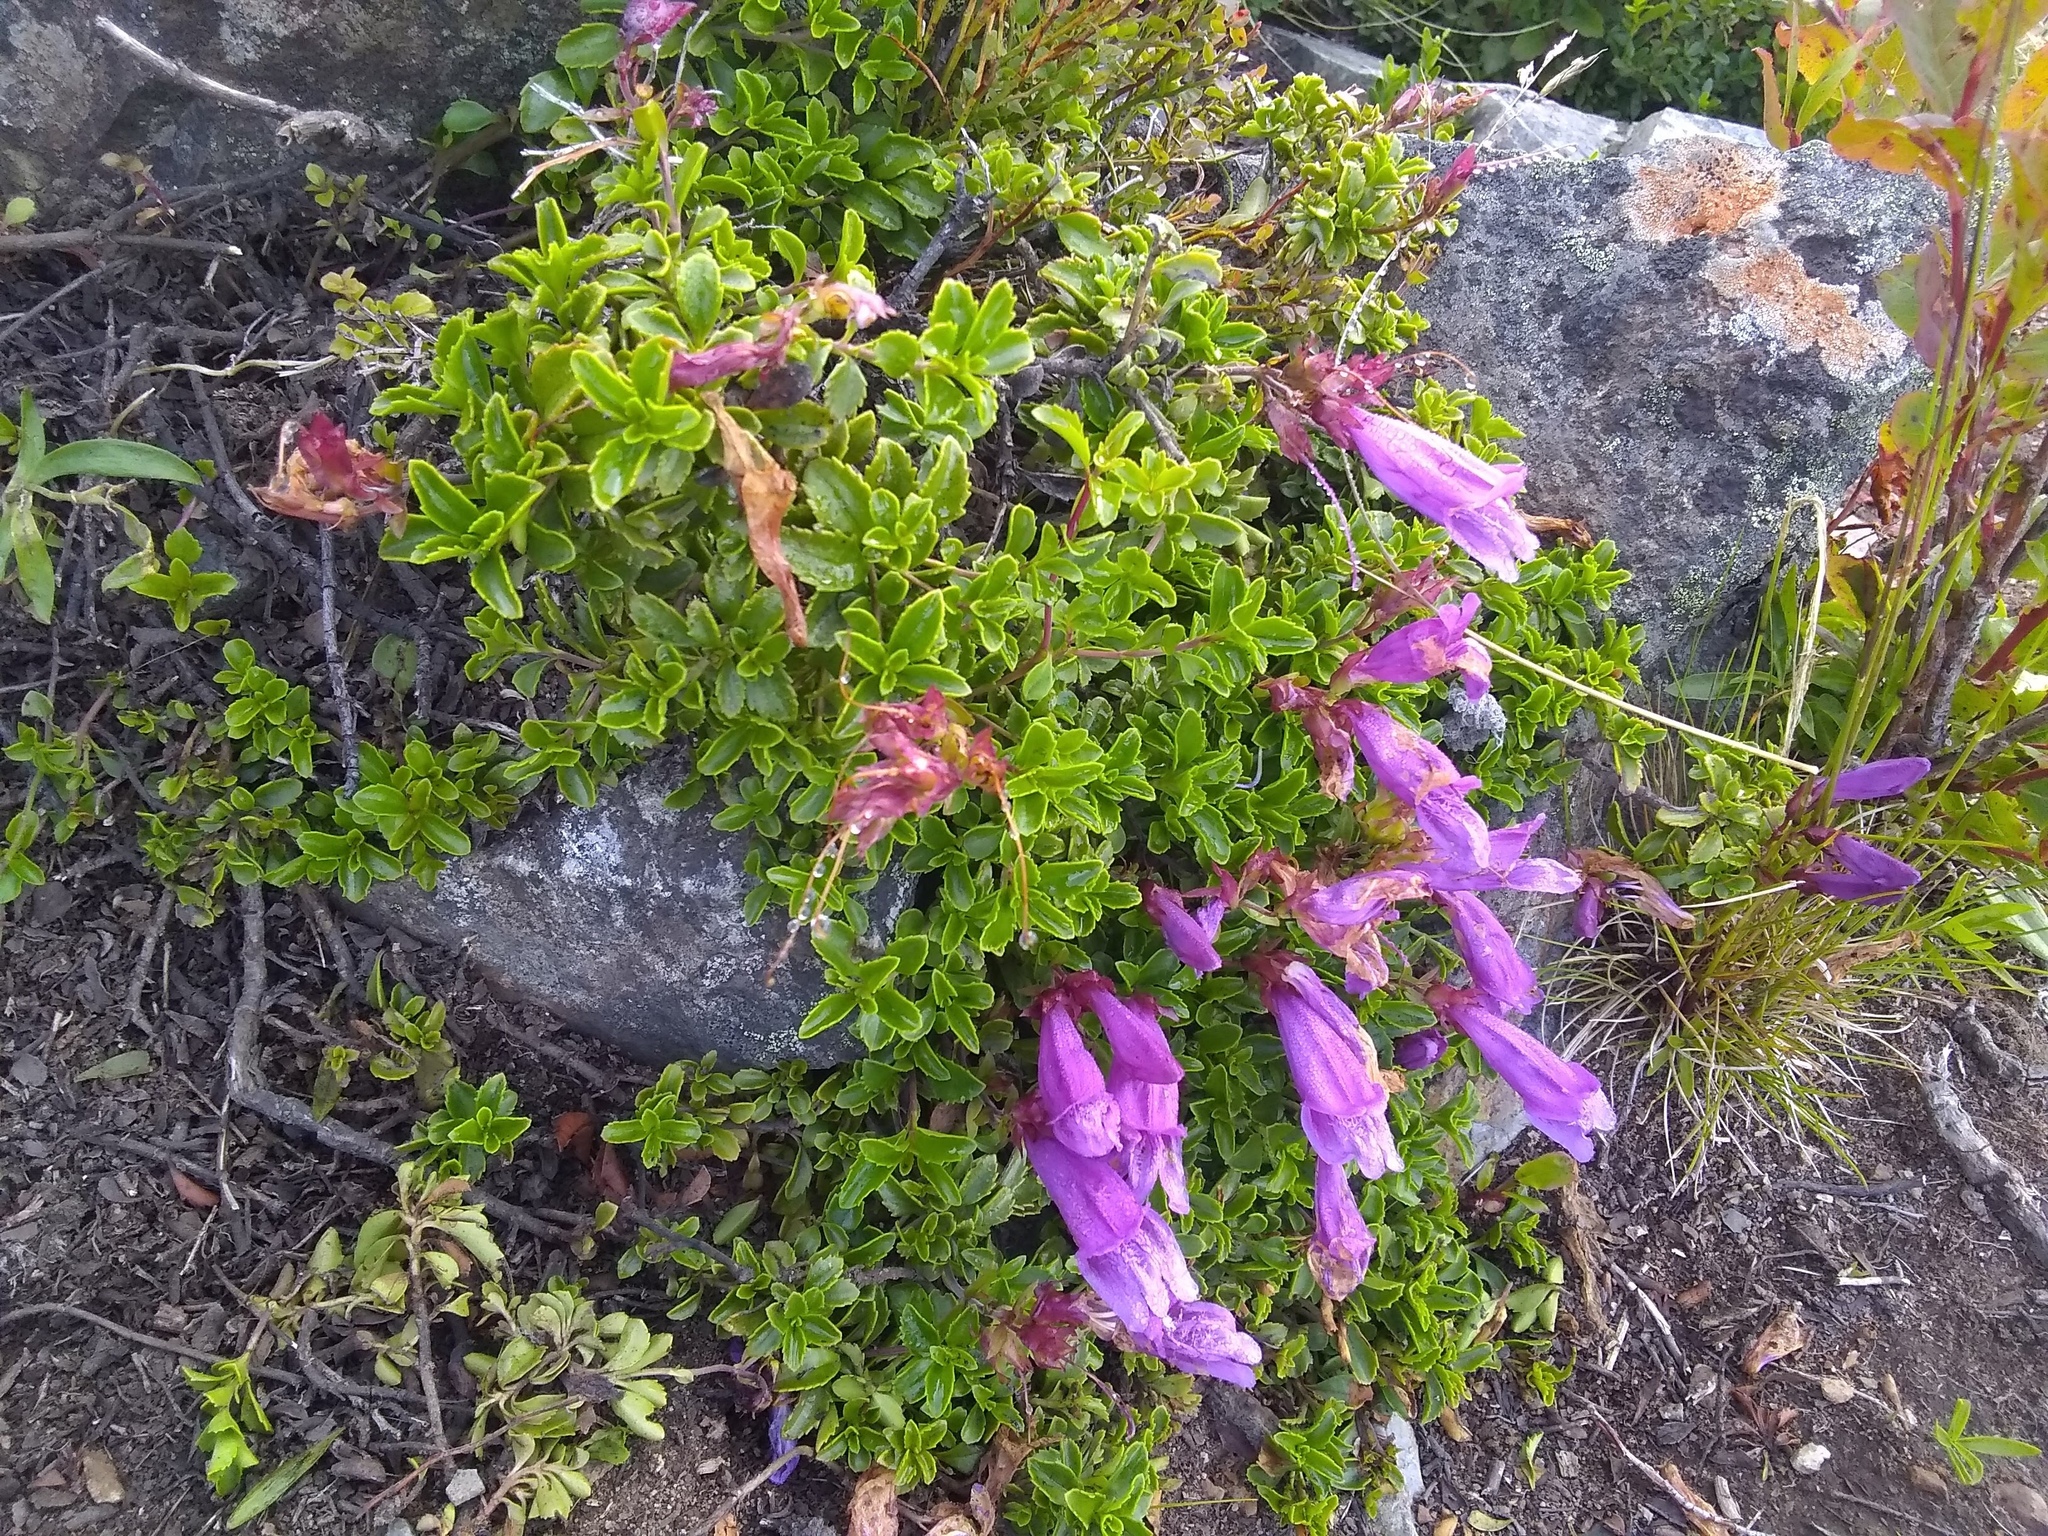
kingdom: Plantae
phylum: Tracheophyta
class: Magnoliopsida
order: Lamiales
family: Plantaginaceae
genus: Penstemon
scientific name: Penstemon davidsonii
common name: Davidson's penstemon
